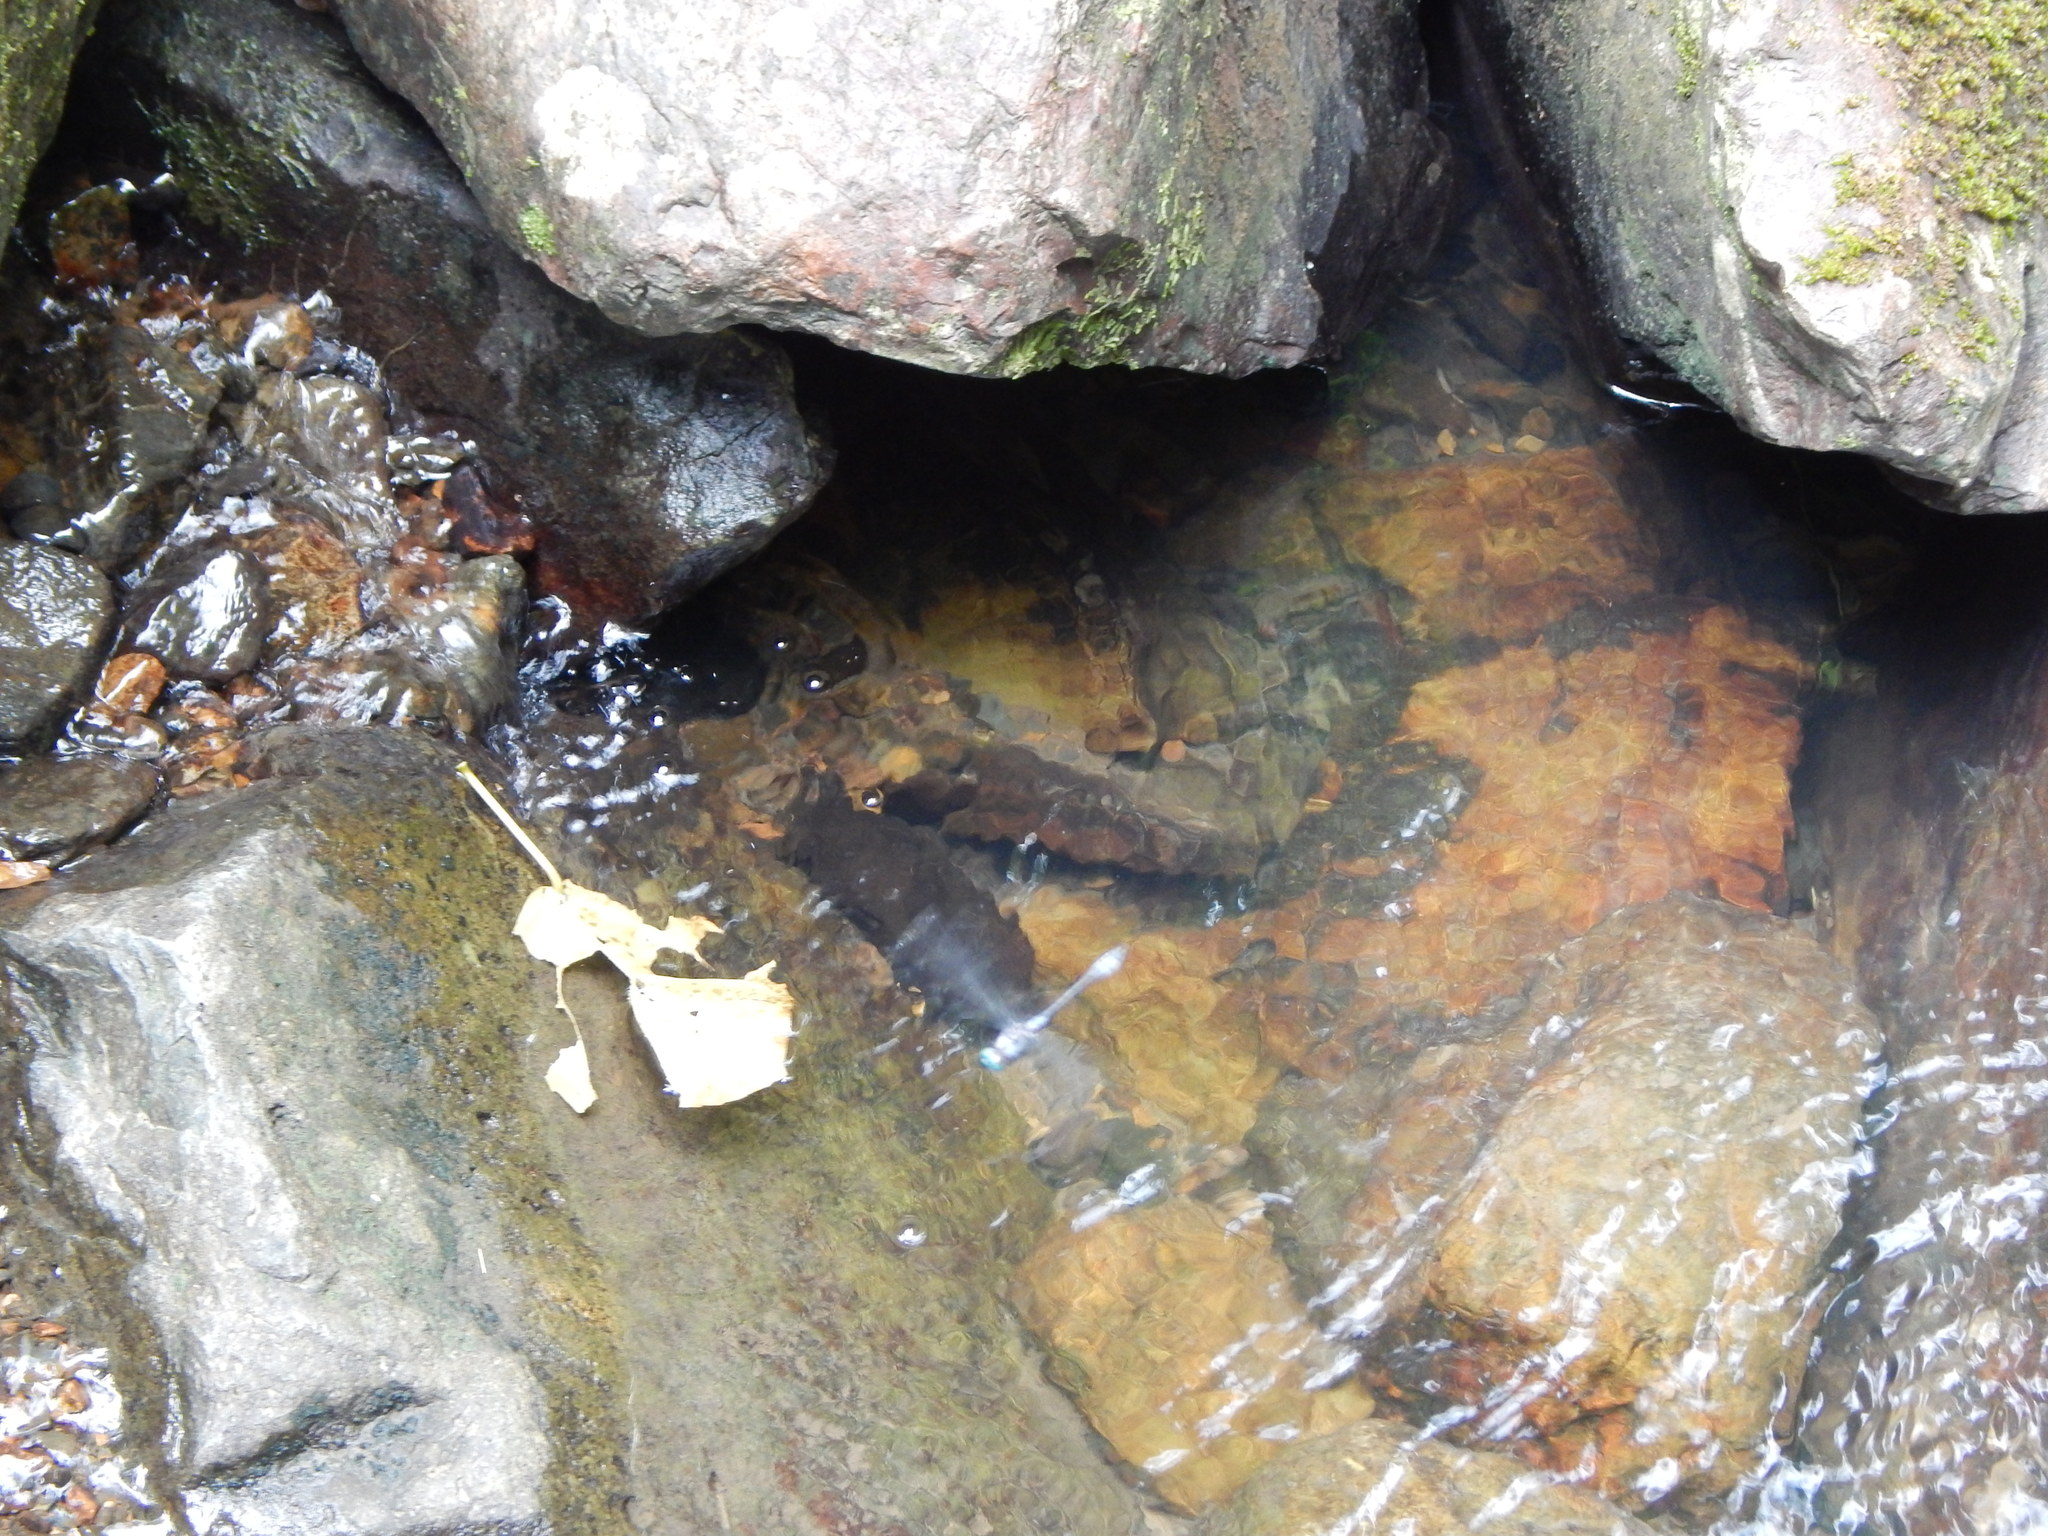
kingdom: Animalia
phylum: Arthropoda
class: Insecta
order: Odonata
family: Libellulidae
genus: Scapanea
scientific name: Scapanea frontalis
